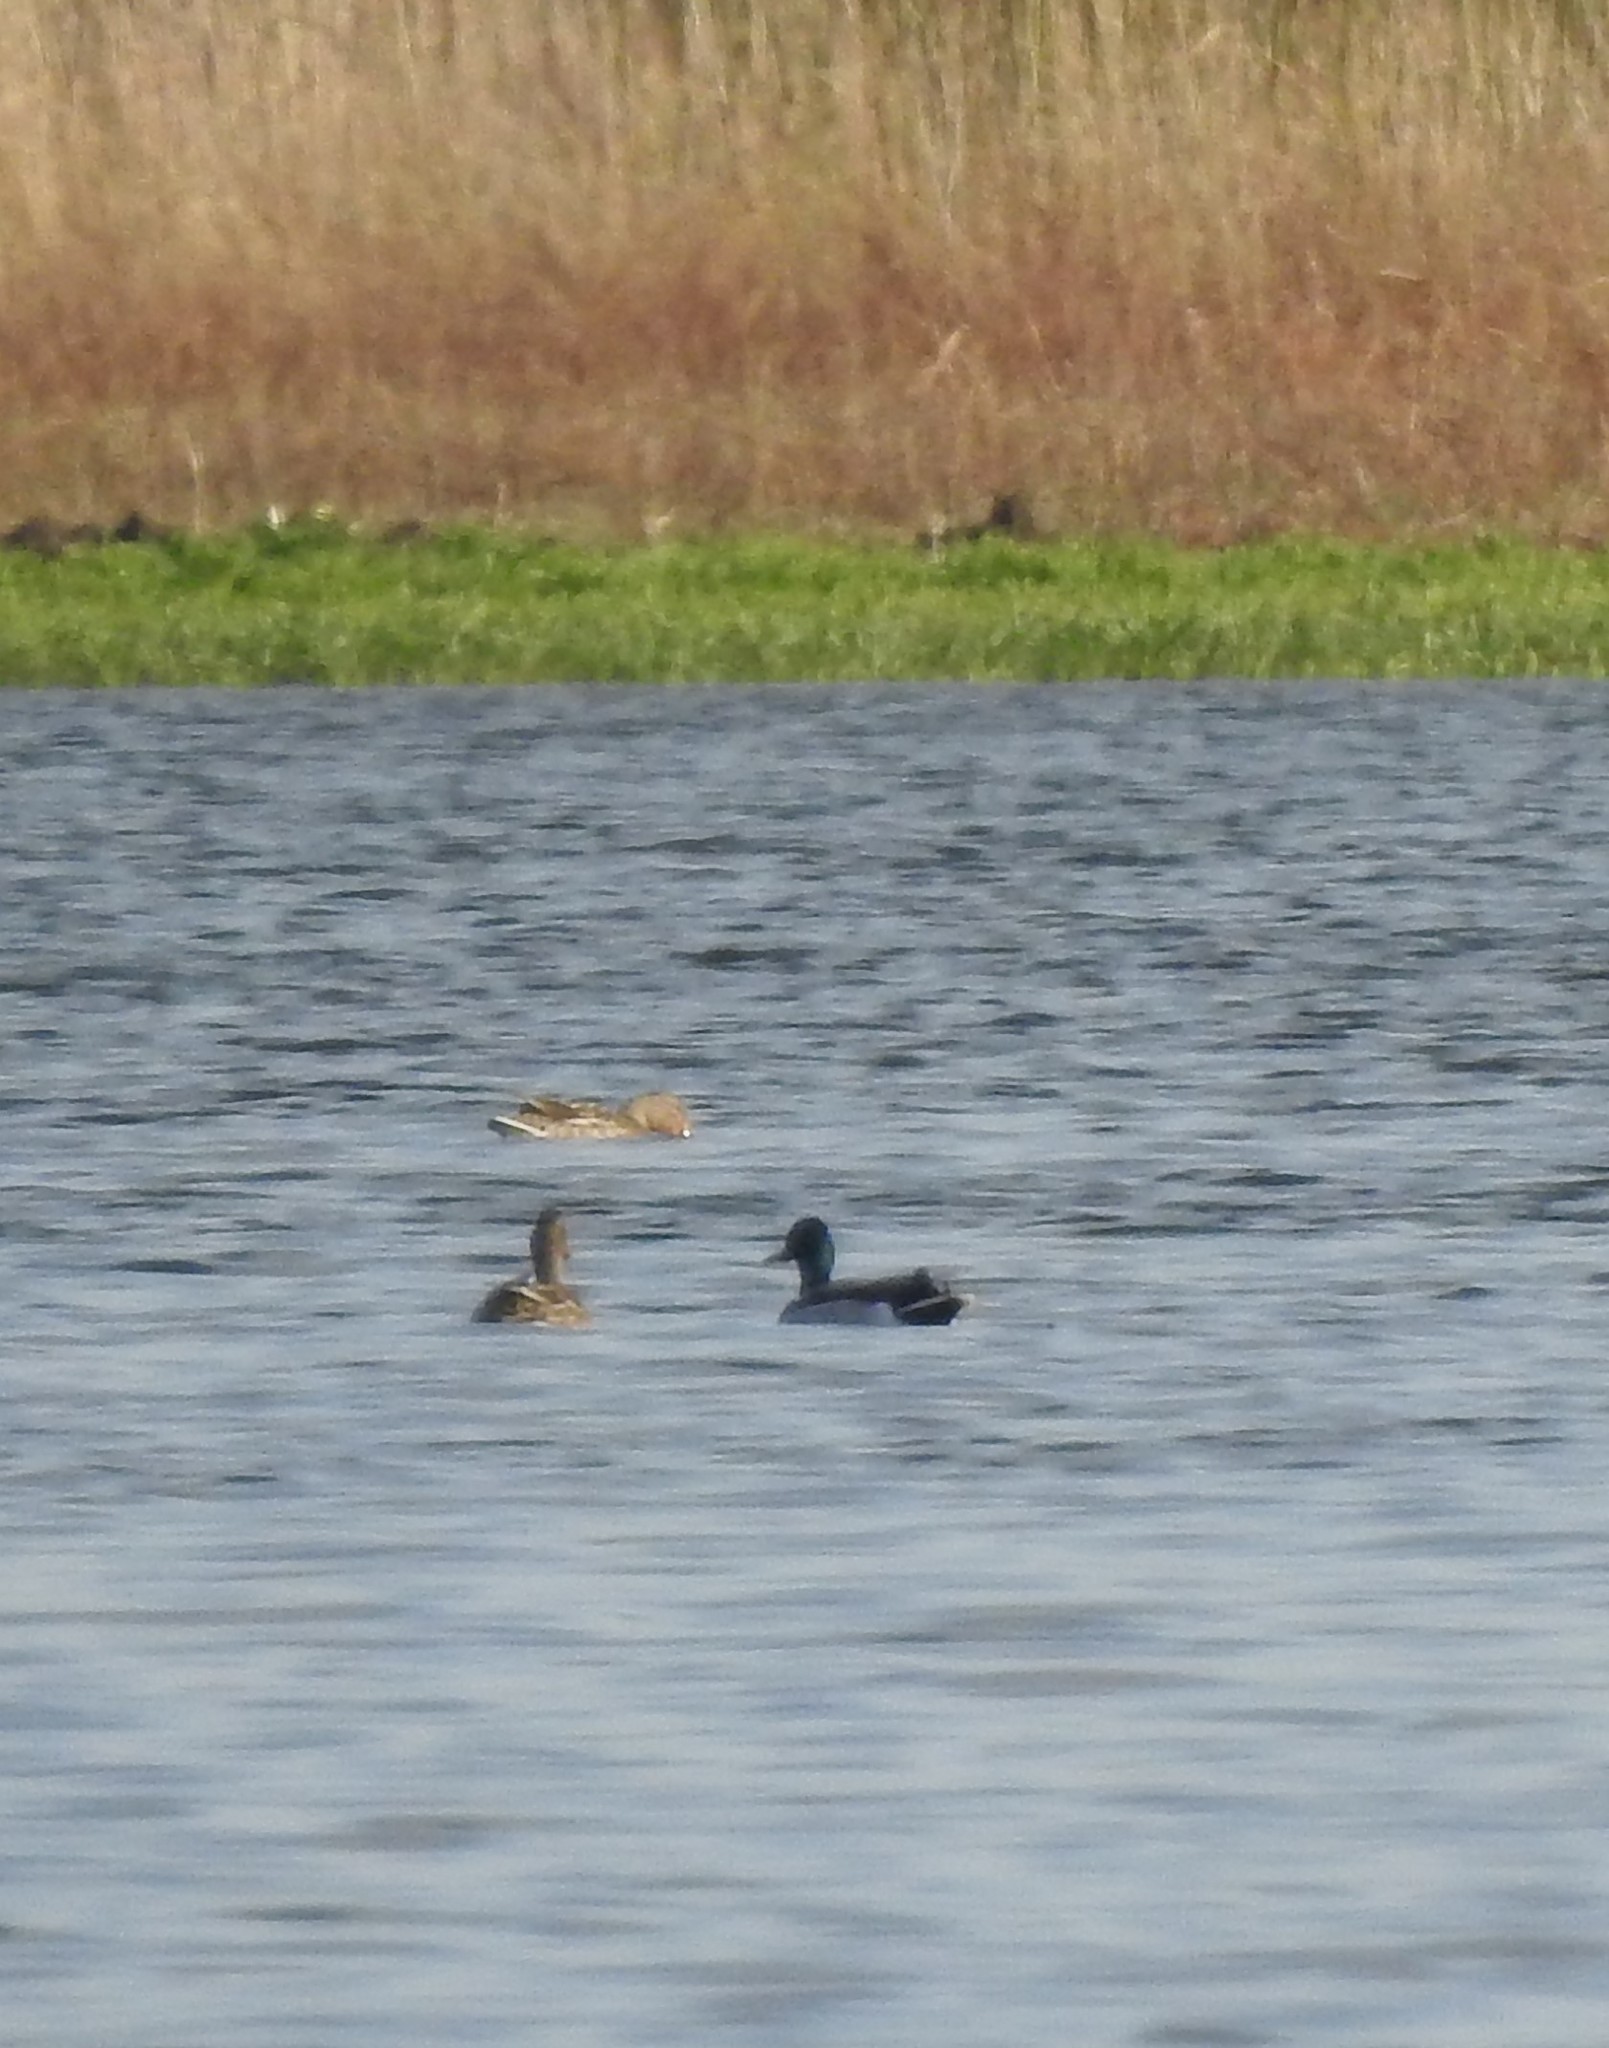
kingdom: Animalia
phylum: Chordata
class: Aves
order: Anseriformes
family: Anatidae
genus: Anas
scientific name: Anas platyrhynchos
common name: Mallard
